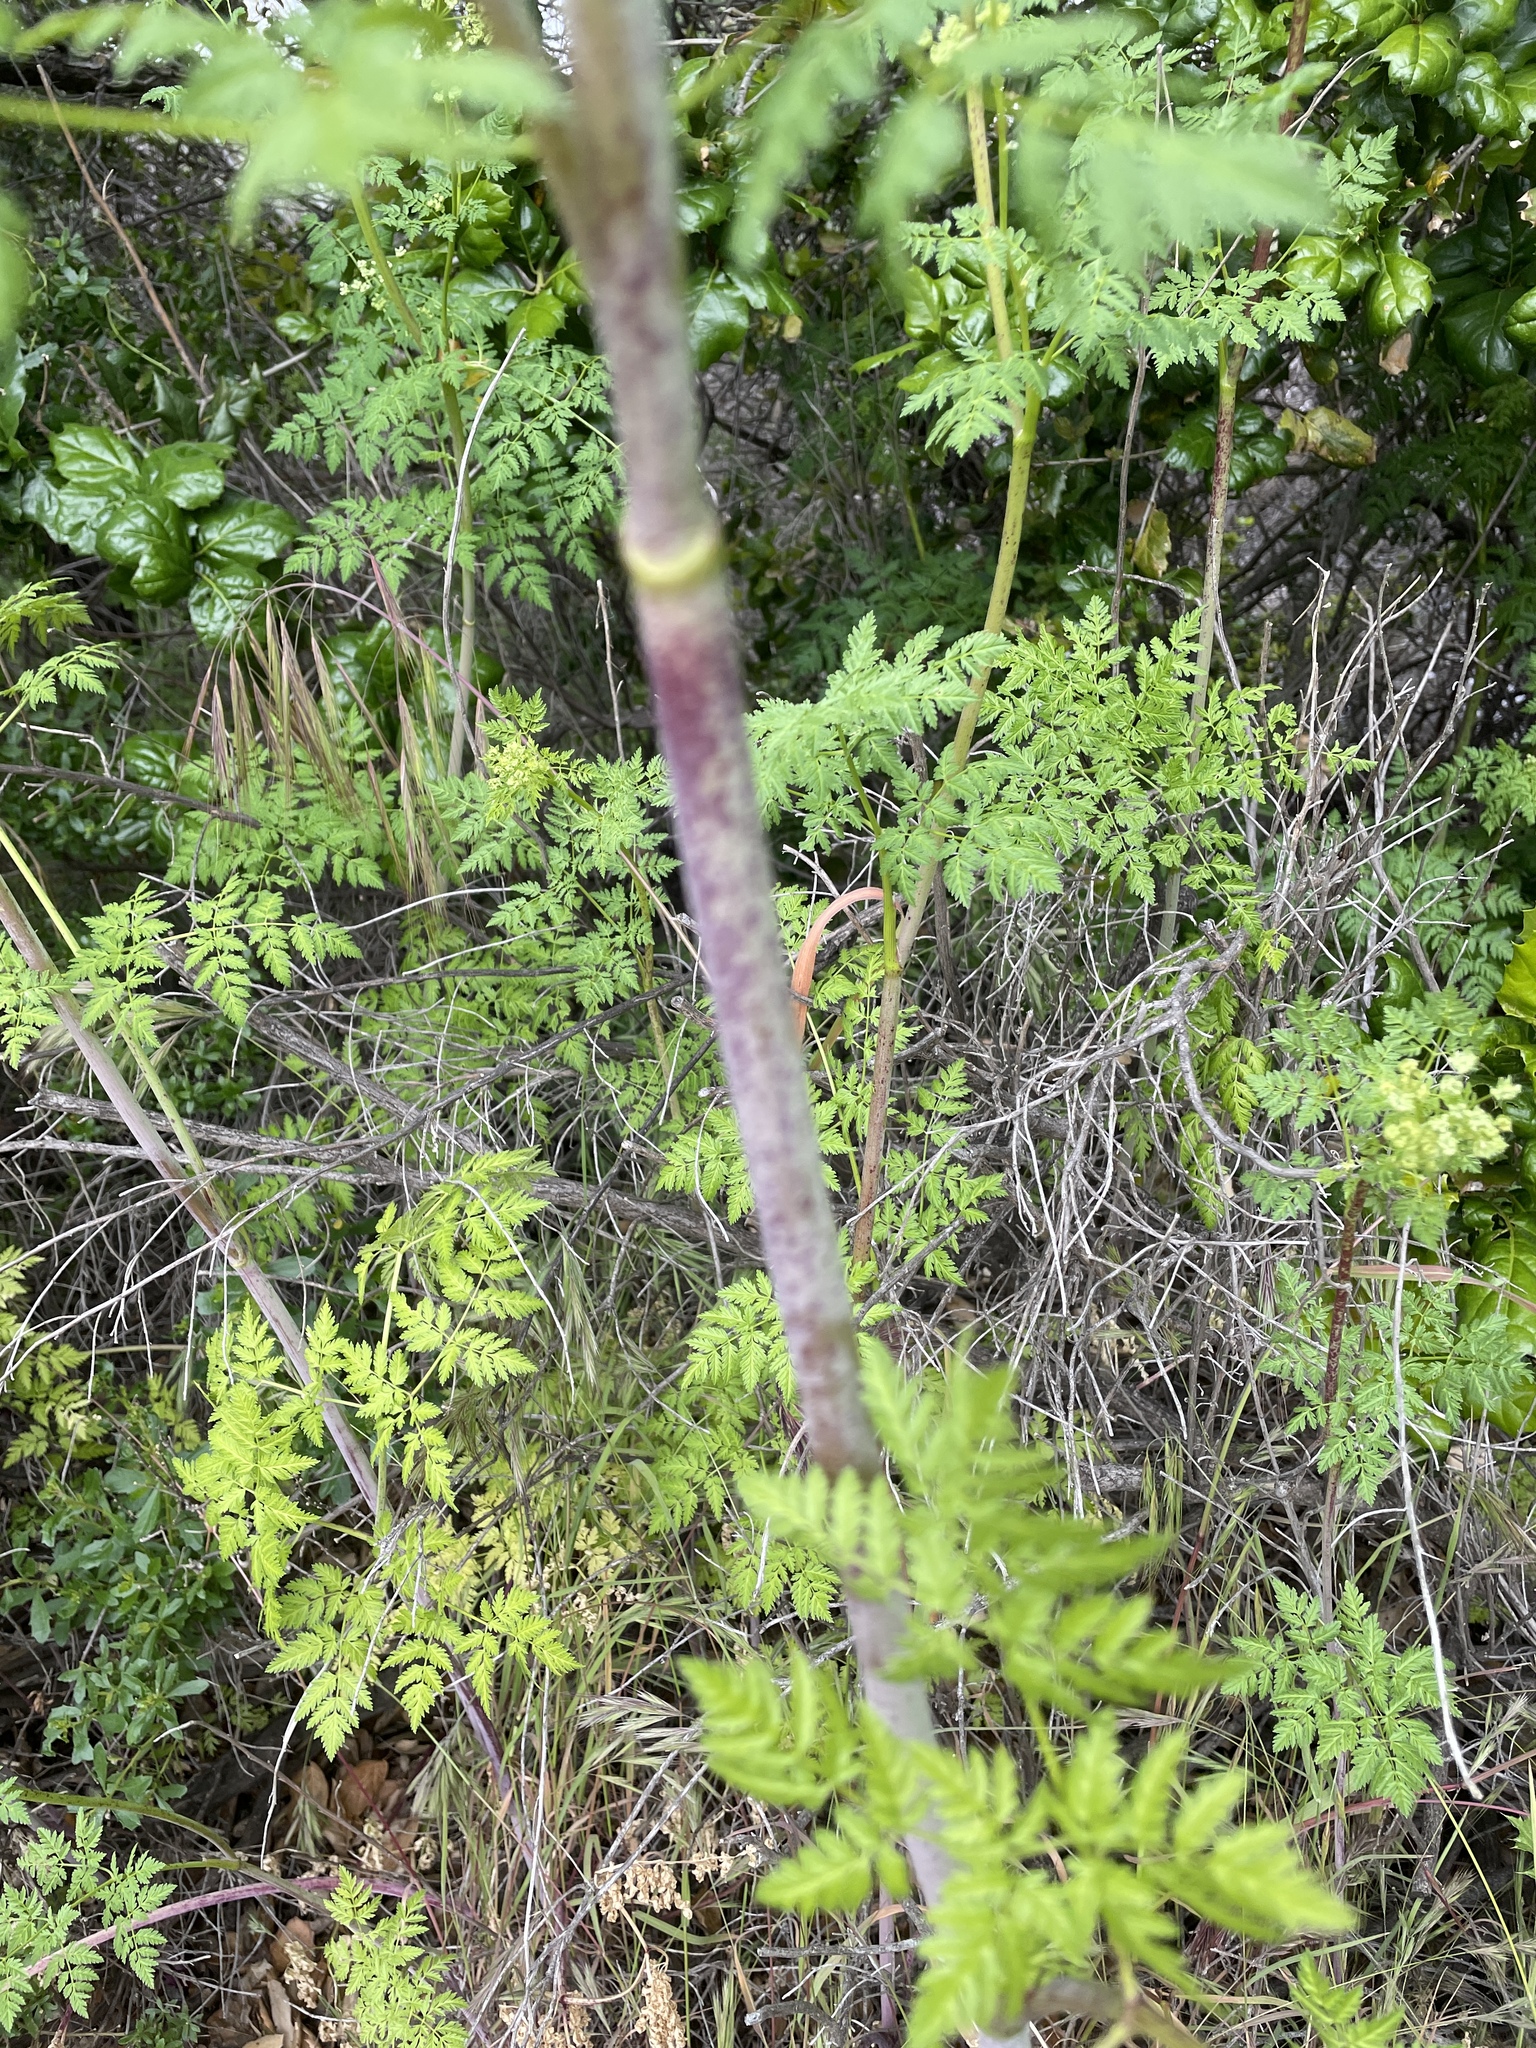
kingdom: Plantae
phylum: Tracheophyta
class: Magnoliopsida
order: Apiales
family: Apiaceae
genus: Conium
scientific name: Conium maculatum
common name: Hemlock
